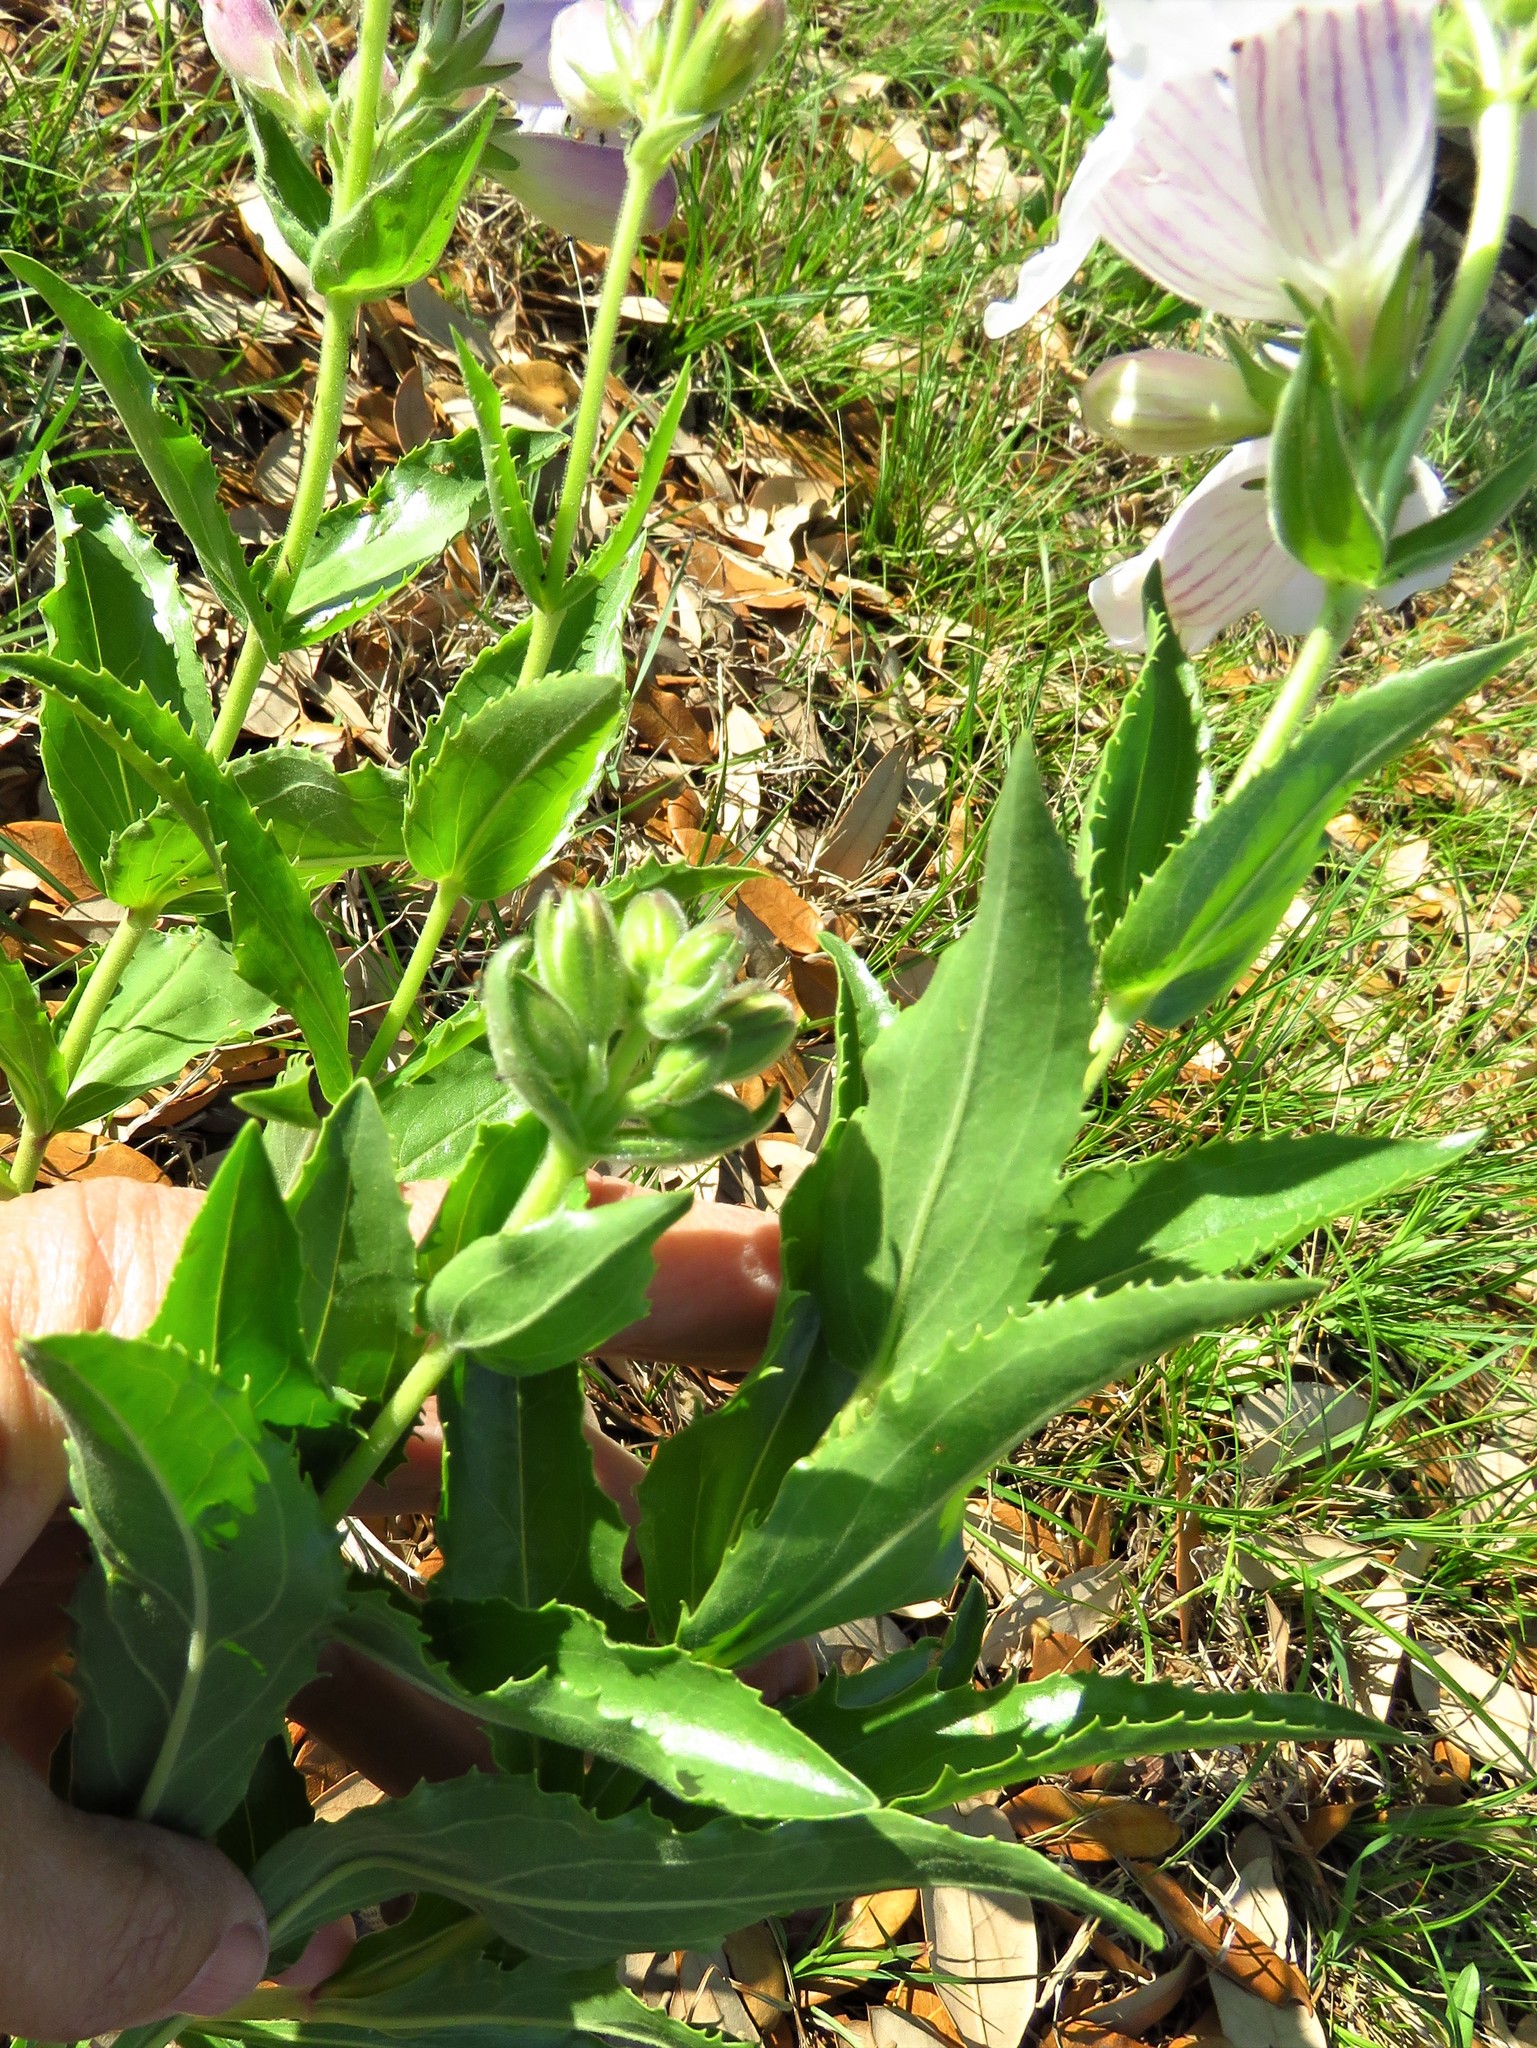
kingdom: Plantae
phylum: Tracheophyta
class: Magnoliopsida
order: Lamiales
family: Plantaginaceae
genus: Penstemon
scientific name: Penstemon cobaea
